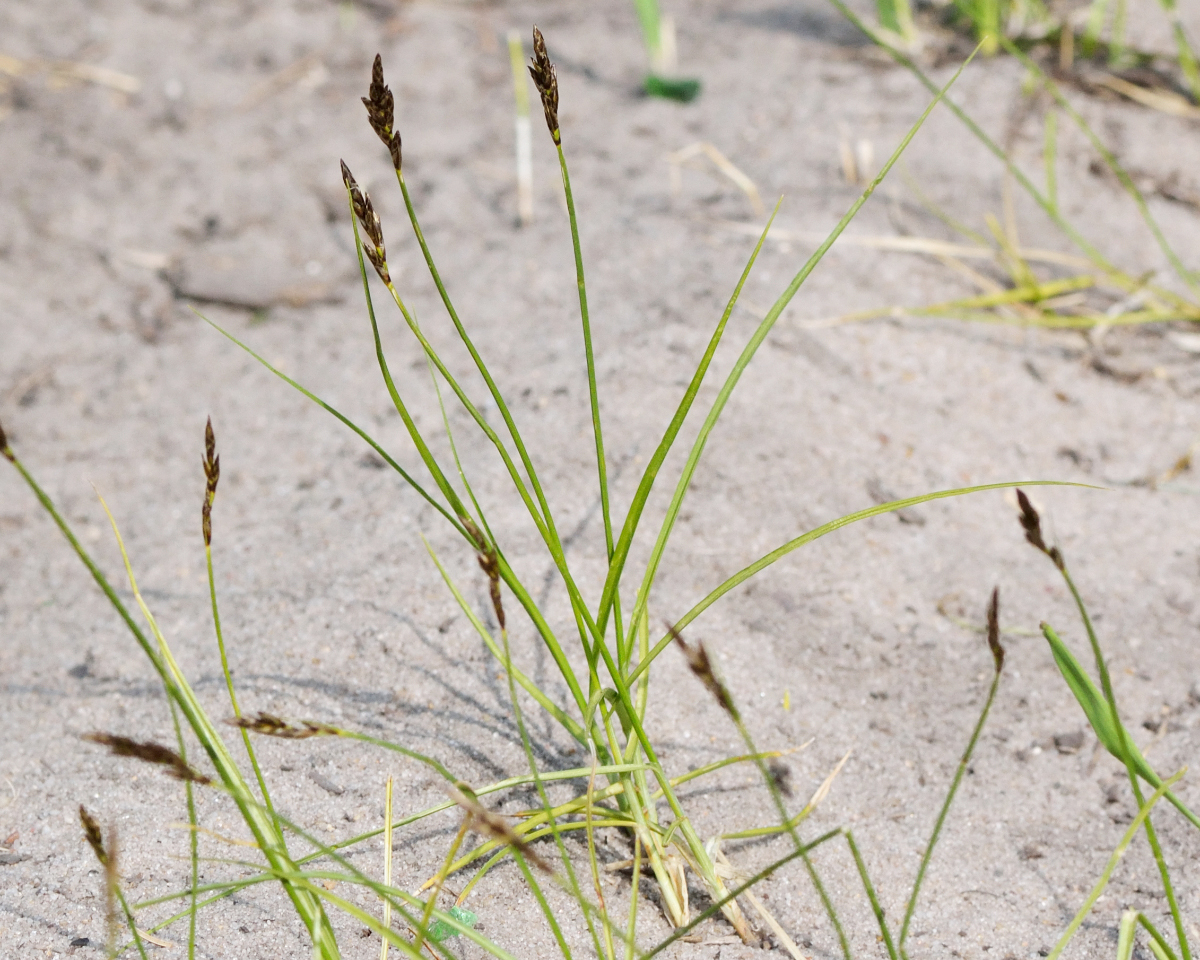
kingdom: Plantae
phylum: Tracheophyta
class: Liliopsida
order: Poales
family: Cyperaceae
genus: Carex
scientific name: Carex praecox
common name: Early sedge
